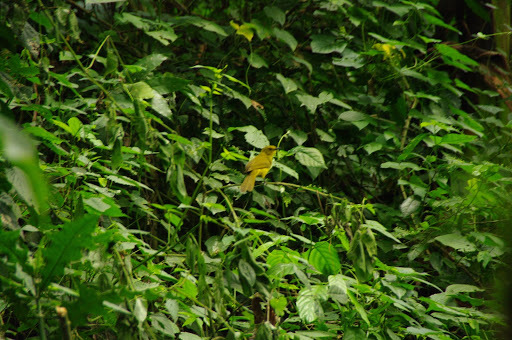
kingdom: Animalia
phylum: Chordata
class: Aves
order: Passeriformes
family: Pycnonotidae
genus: Chlorocichla
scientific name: Chlorocichla laetissima
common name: Joyful greenbul
